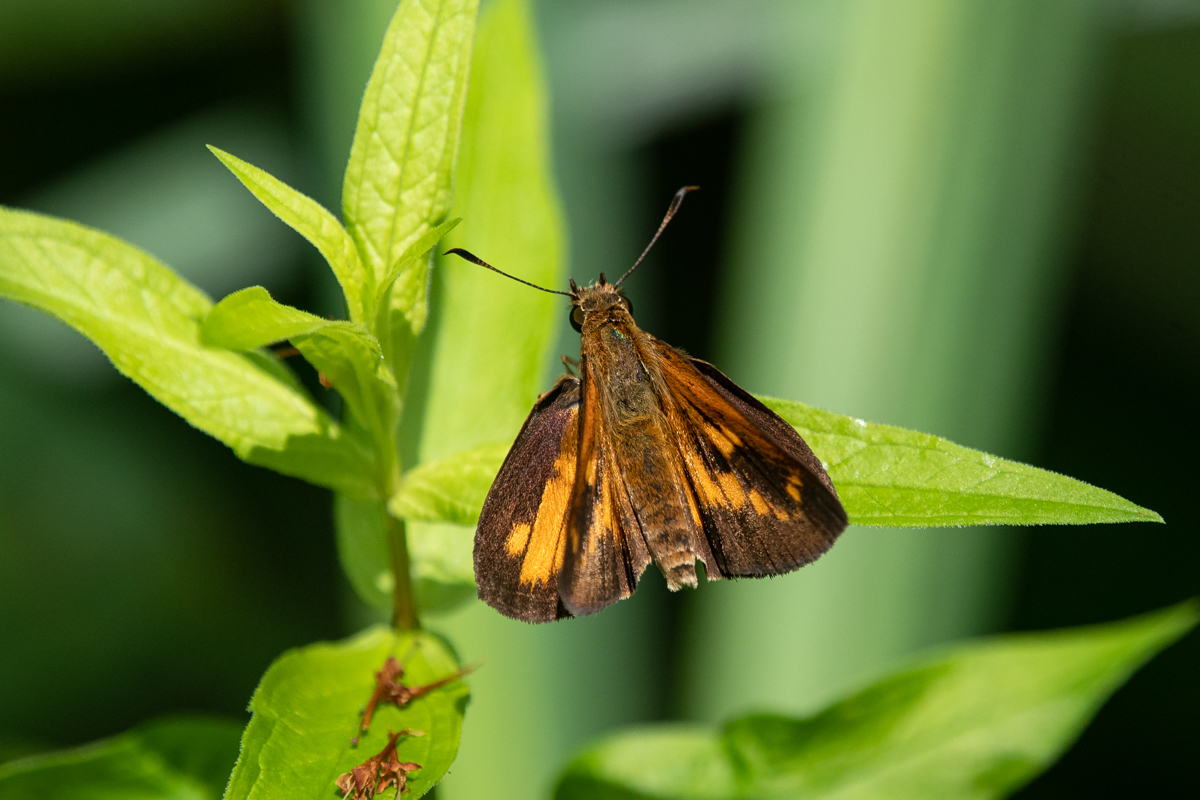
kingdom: Animalia
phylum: Arthropoda
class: Insecta
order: Lepidoptera
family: Hesperiidae
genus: Poanes
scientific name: Poanes viator
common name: Broad-winged skipper
